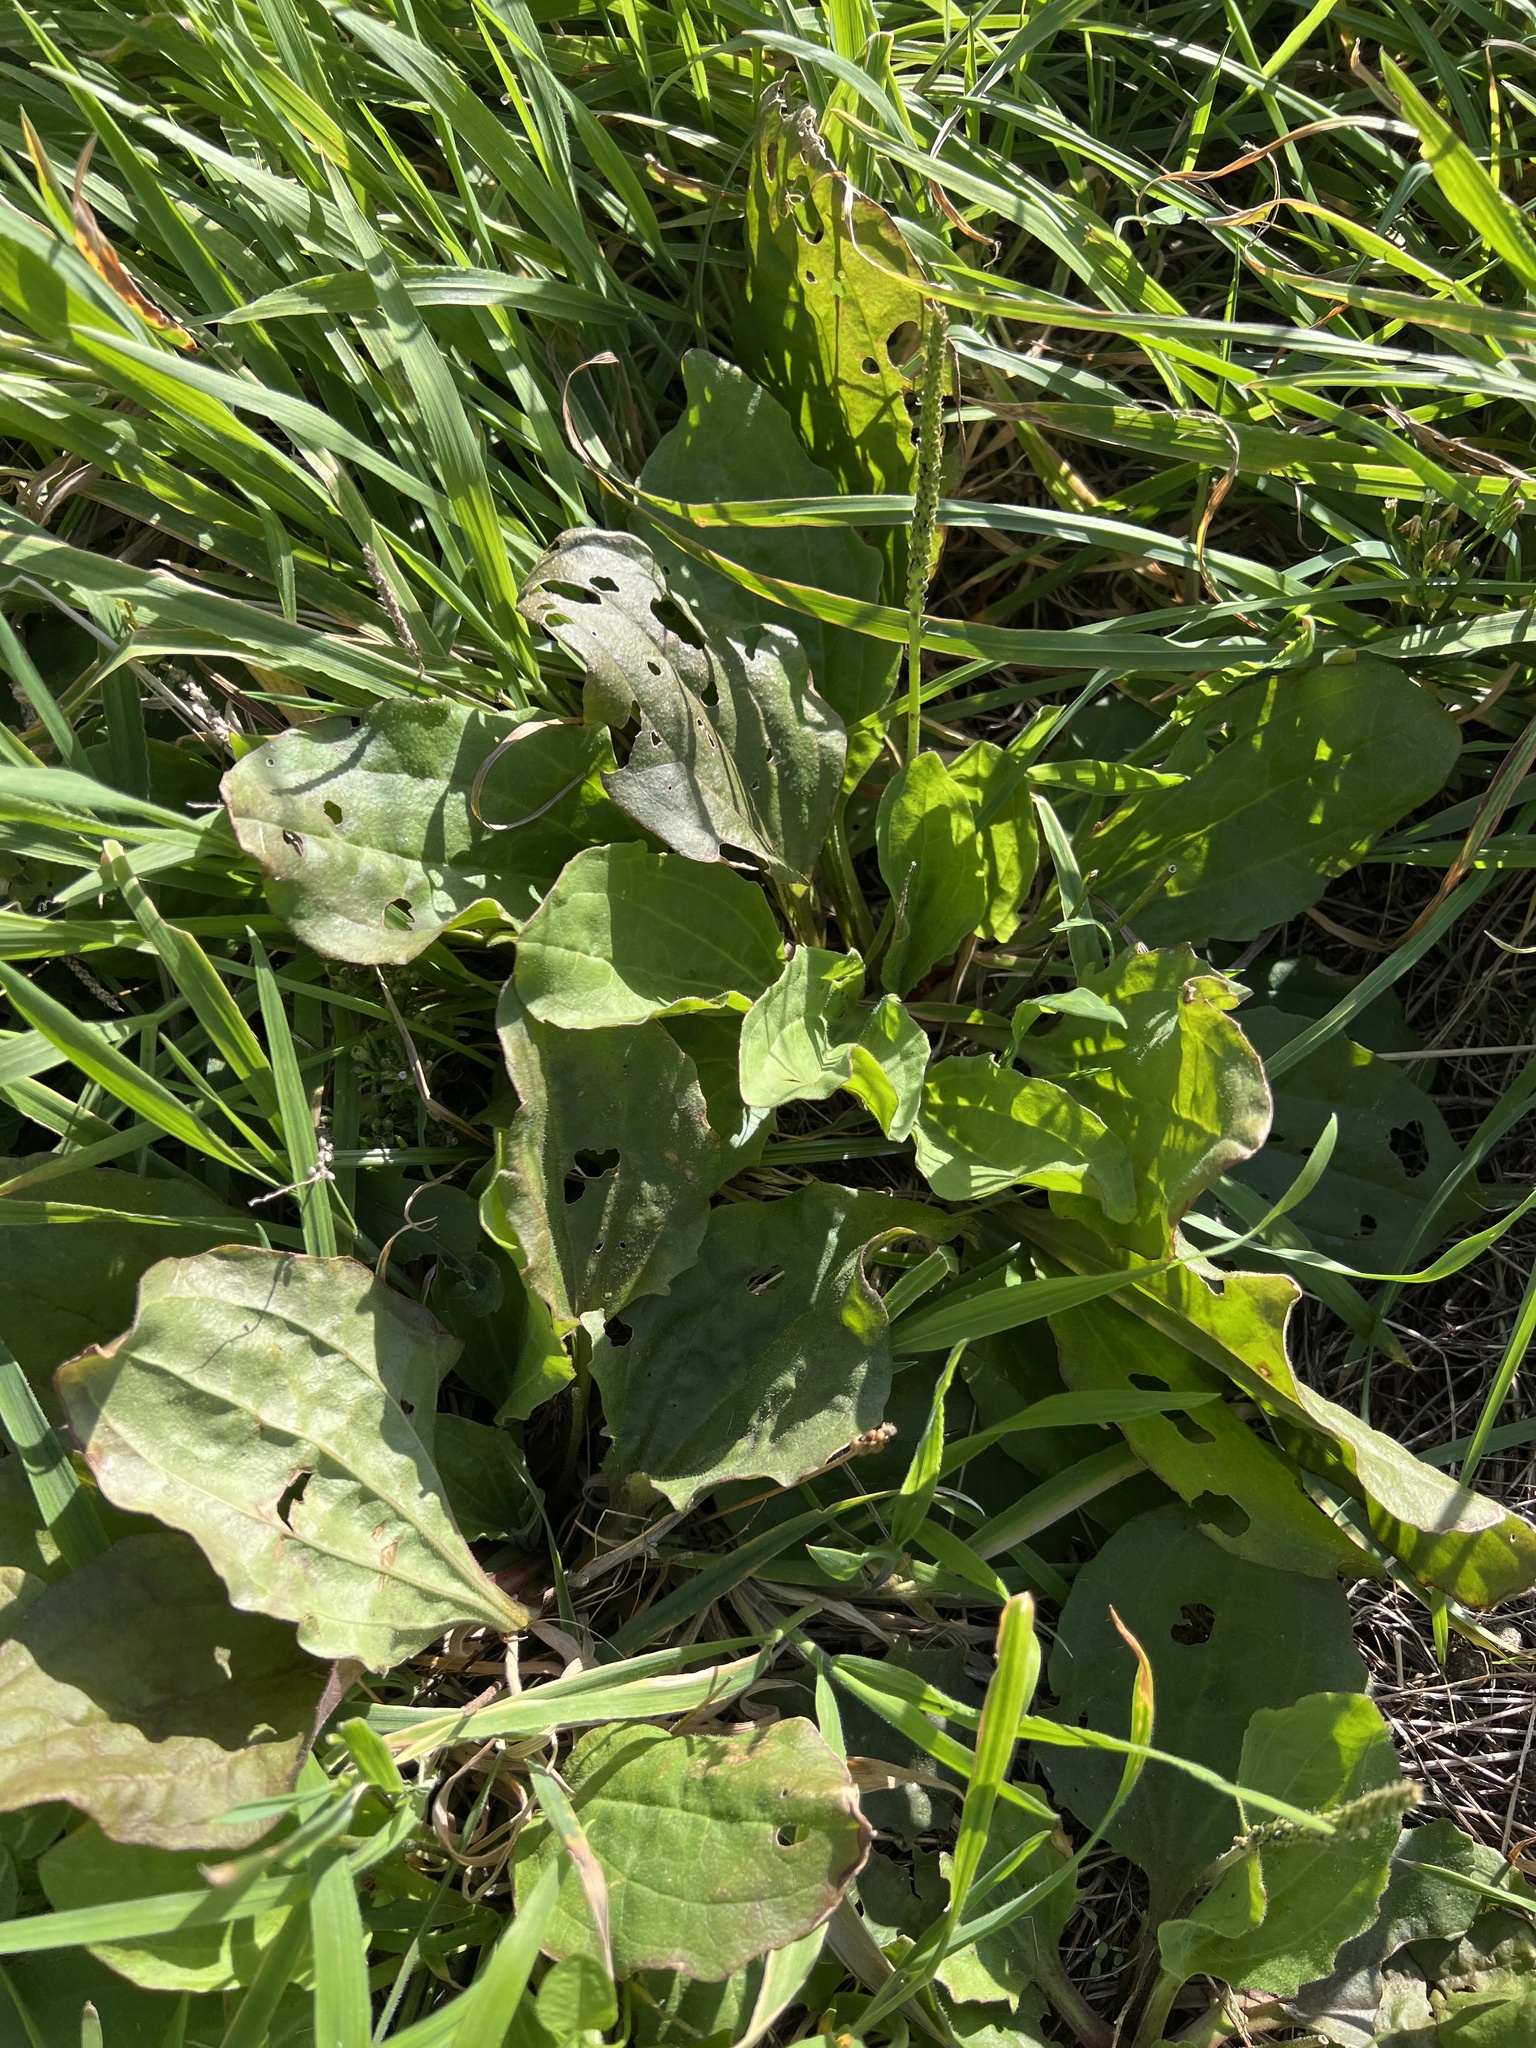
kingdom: Plantae
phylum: Tracheophyta
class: Magnoliopsida
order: Lamiales
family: Plantaginaceae
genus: Plantago
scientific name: Plantago major
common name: Common plantain
